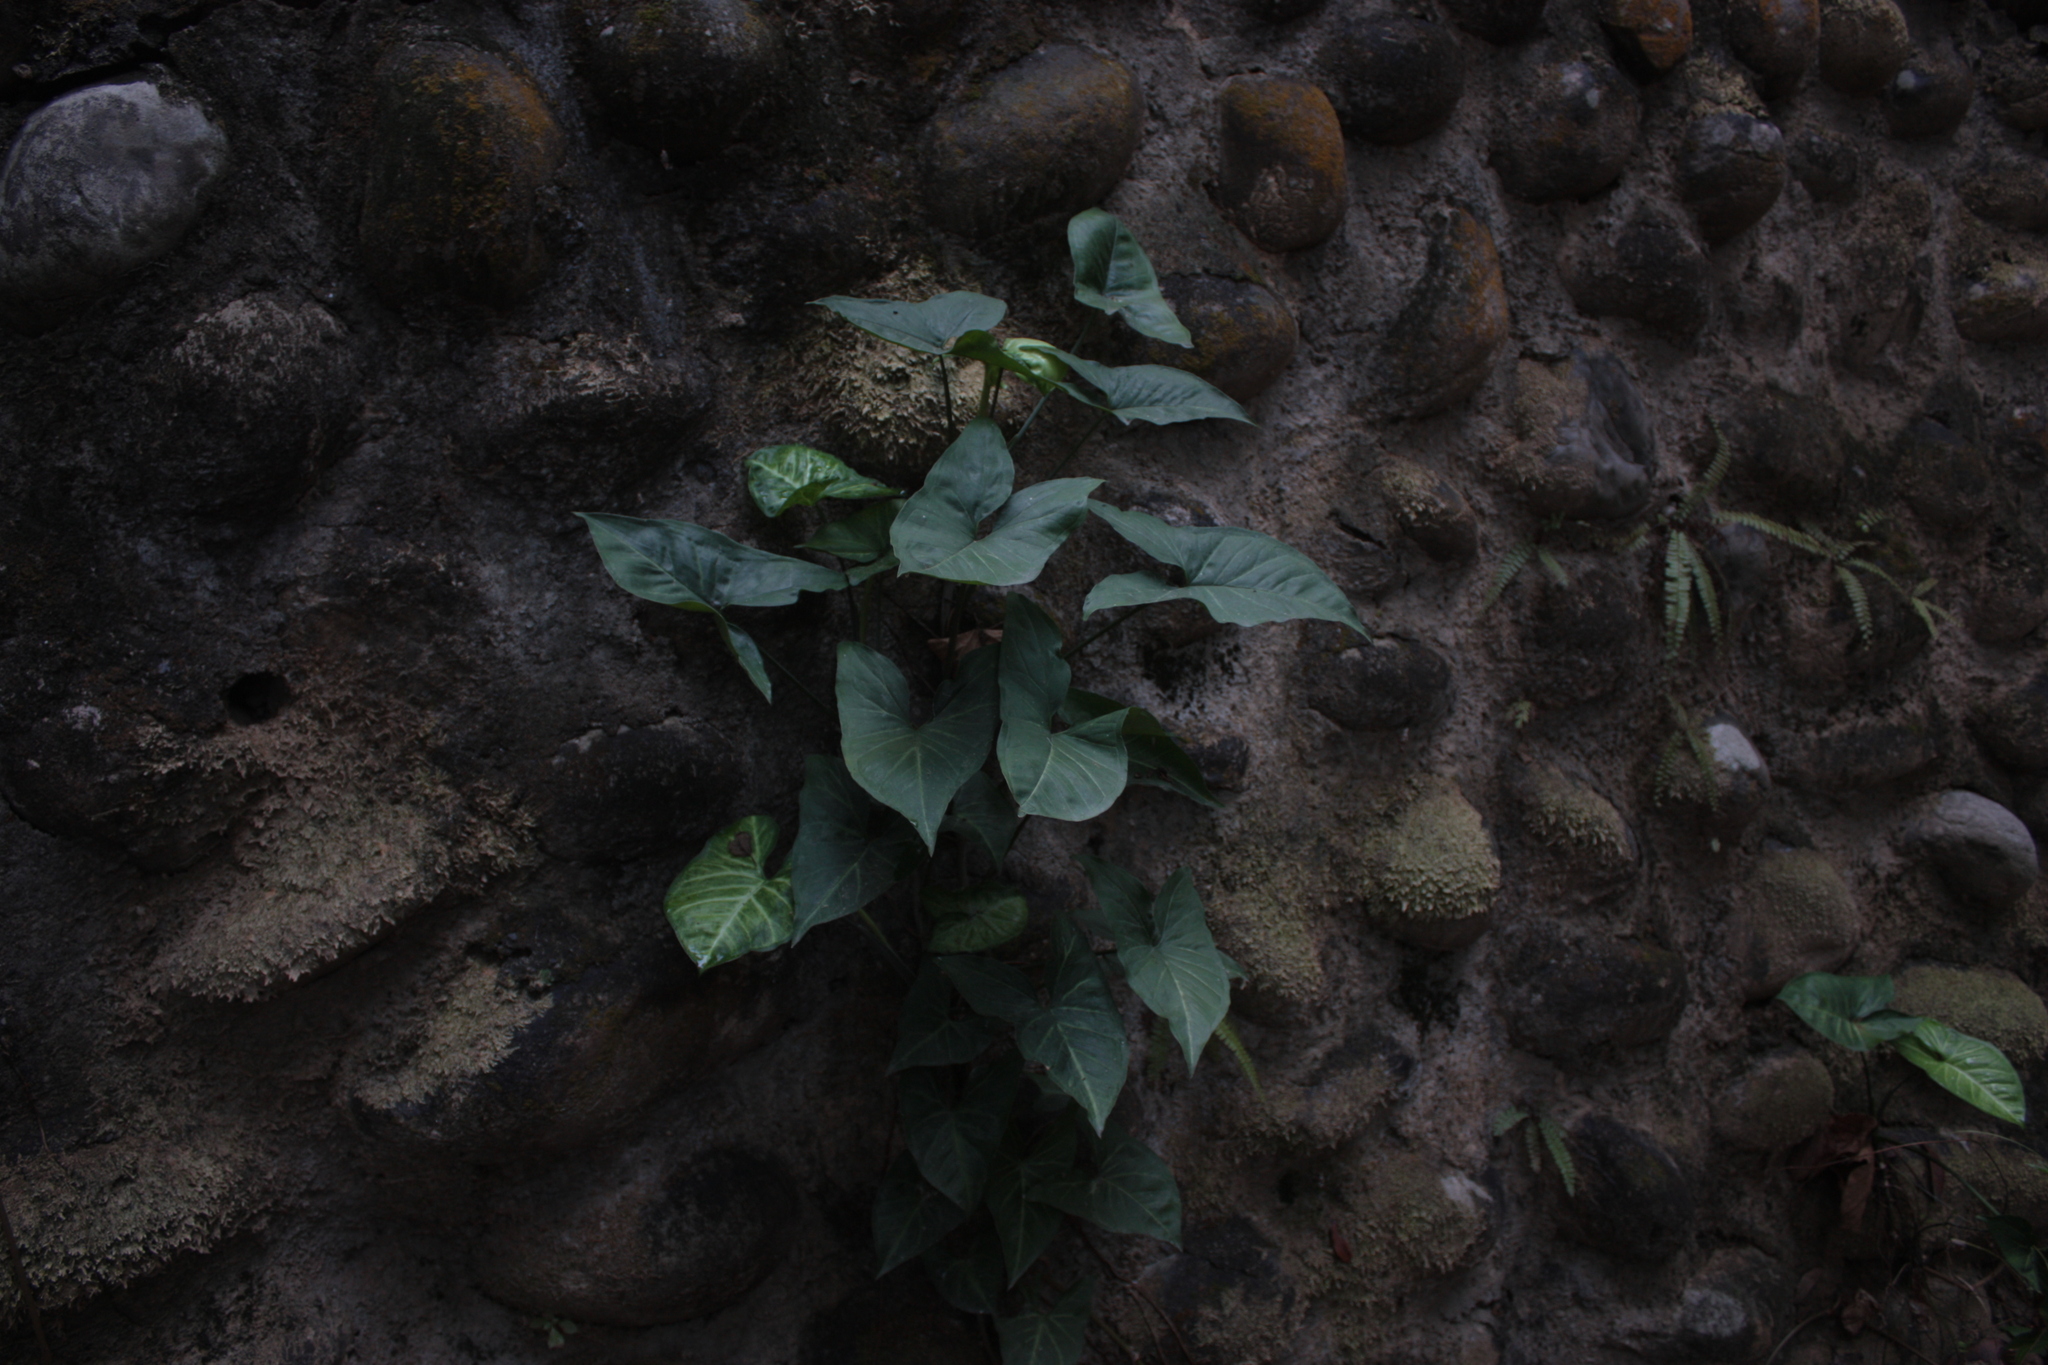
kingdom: Plantae
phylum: Tracheophyta
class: Liliopsida
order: Alismatales
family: Araceae
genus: Syngonium
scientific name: Syngonium podophyllum
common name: American evergreen
